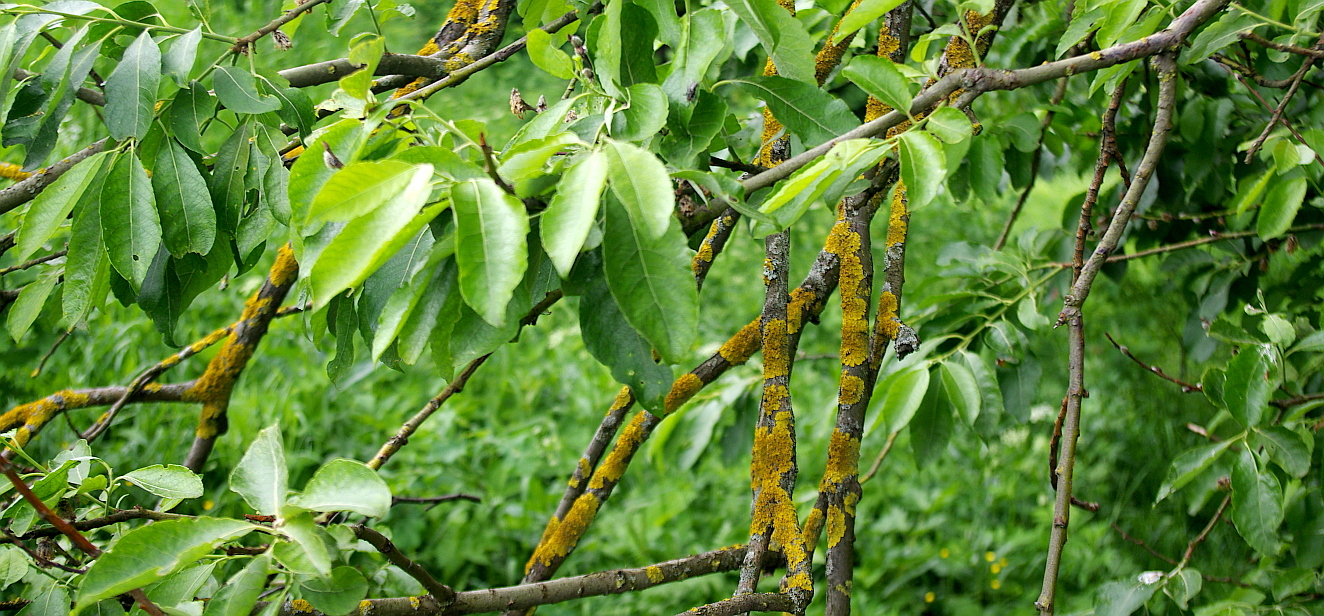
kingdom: Plantae
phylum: Tracheophyta
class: Magnoliopsida
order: Malpighiales
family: Salicaceae
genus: Salix
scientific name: Salix caprea
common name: Goat willow
